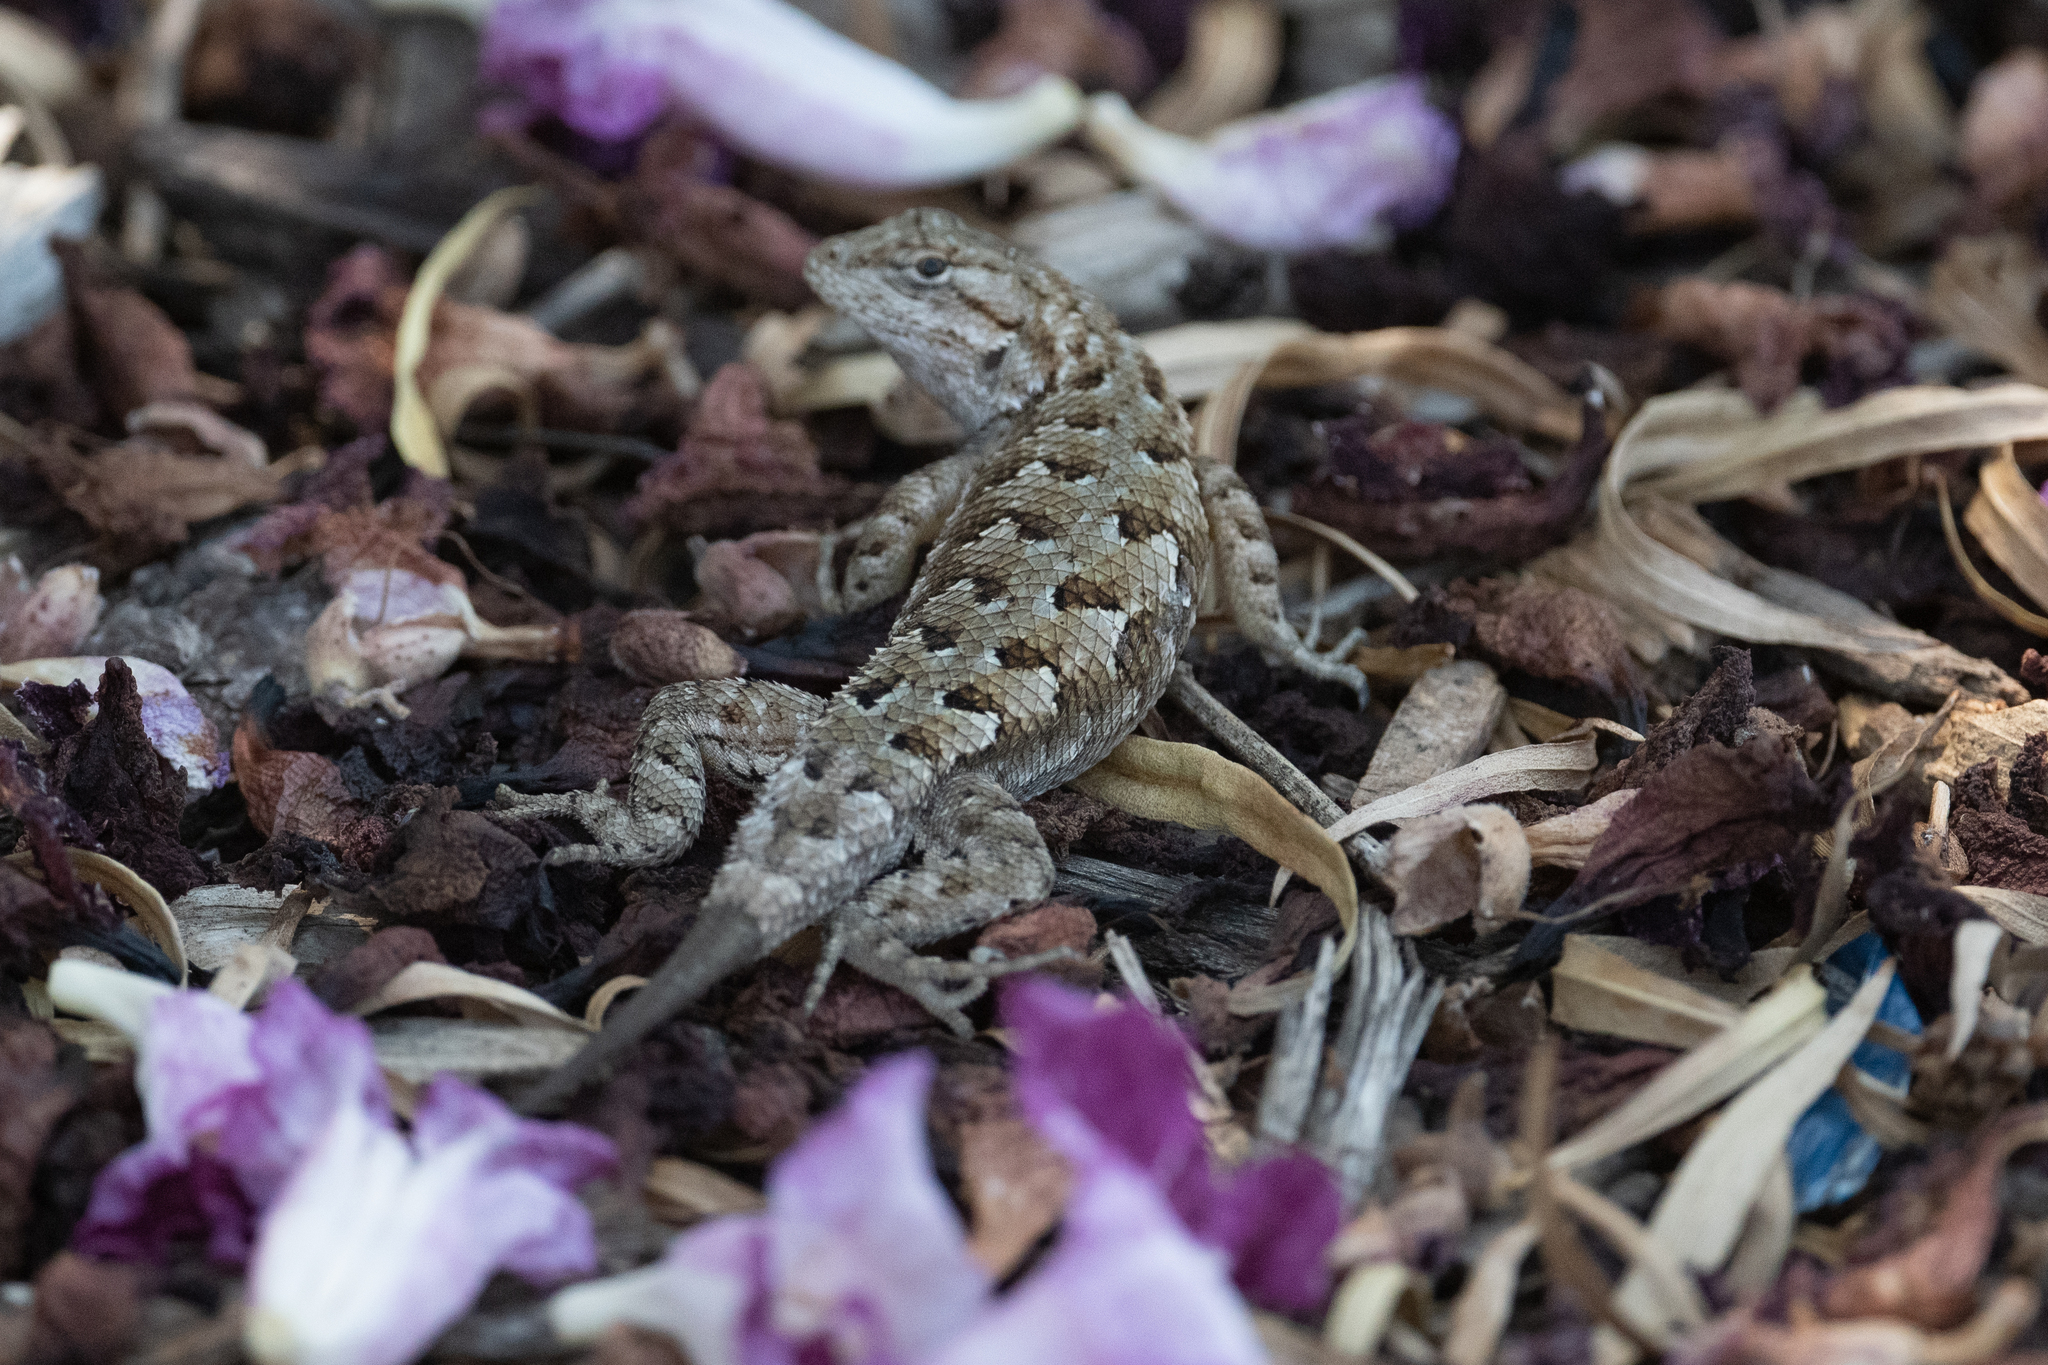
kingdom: Animalia
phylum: Chordata
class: Squamata
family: Phrynosomatidae
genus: Sceloporus
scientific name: Sceloporus occidentalis
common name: Western fence lizard
